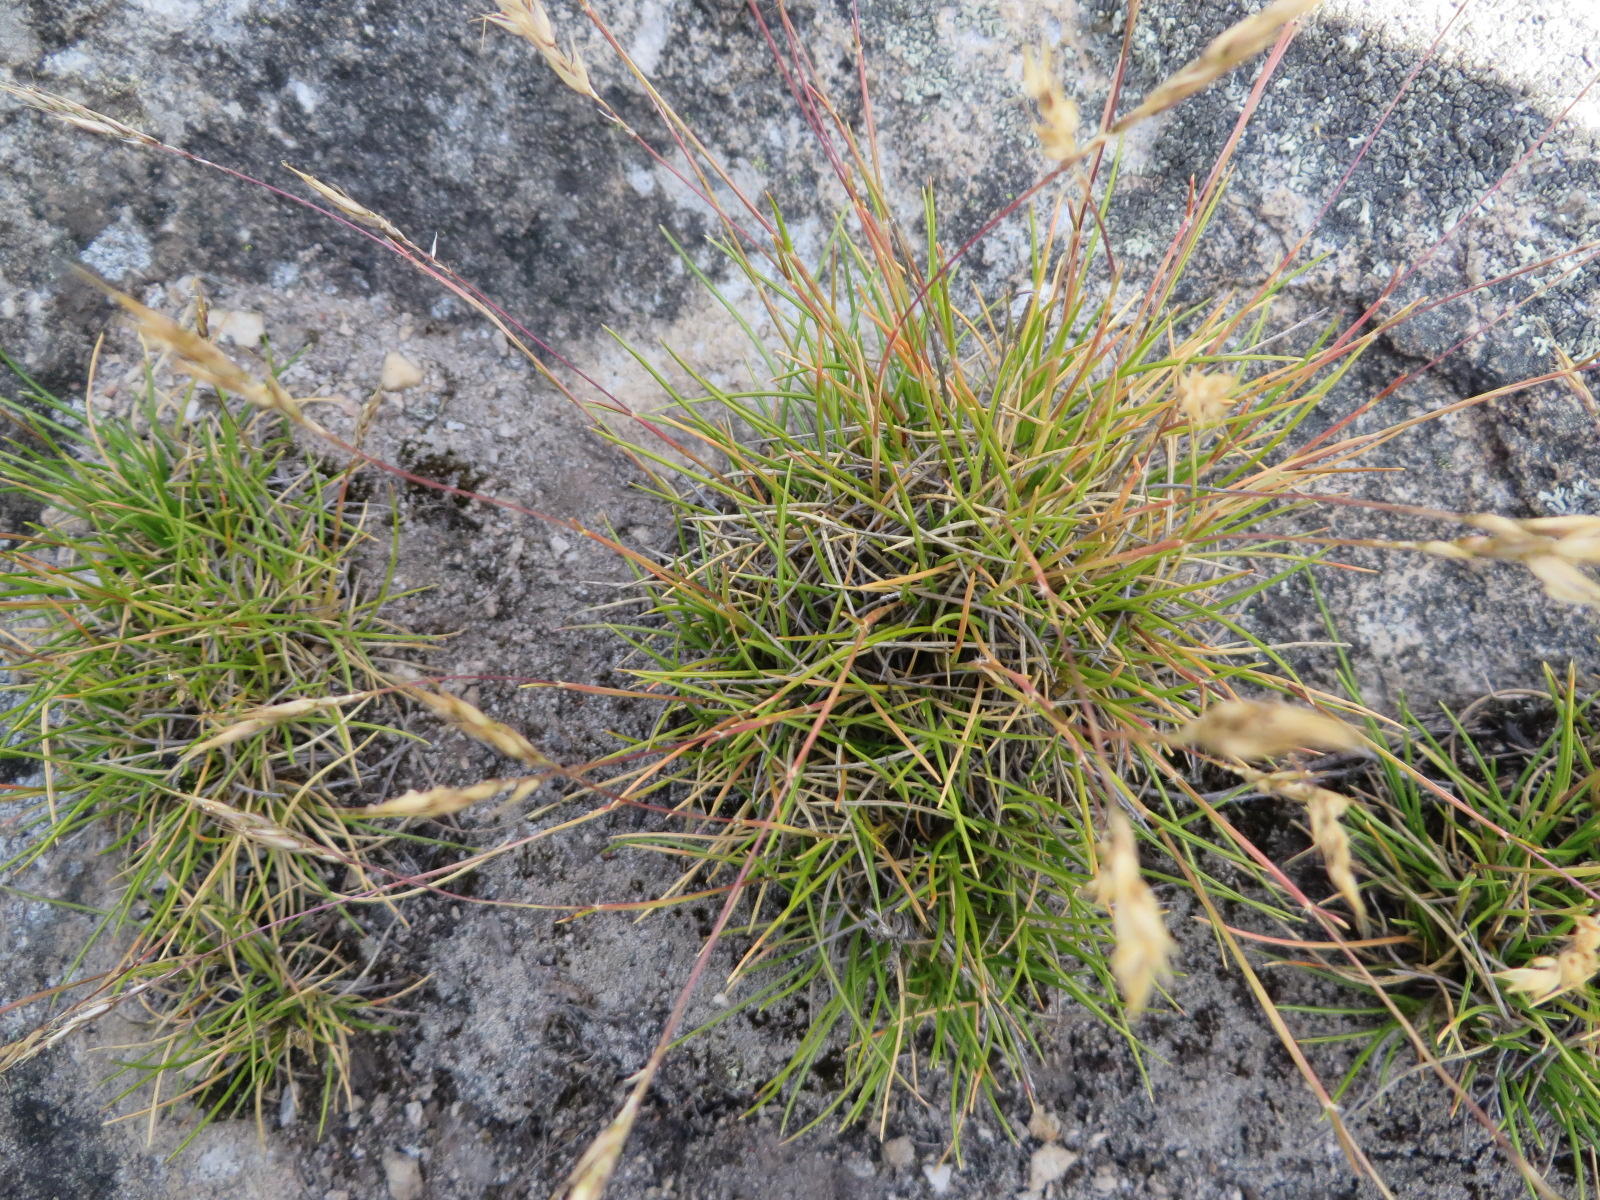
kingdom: Plantae
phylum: Tracheophyta
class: Liliopsida
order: Poales
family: Poaceae
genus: Pentameris
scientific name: Pentameris rigidissima
